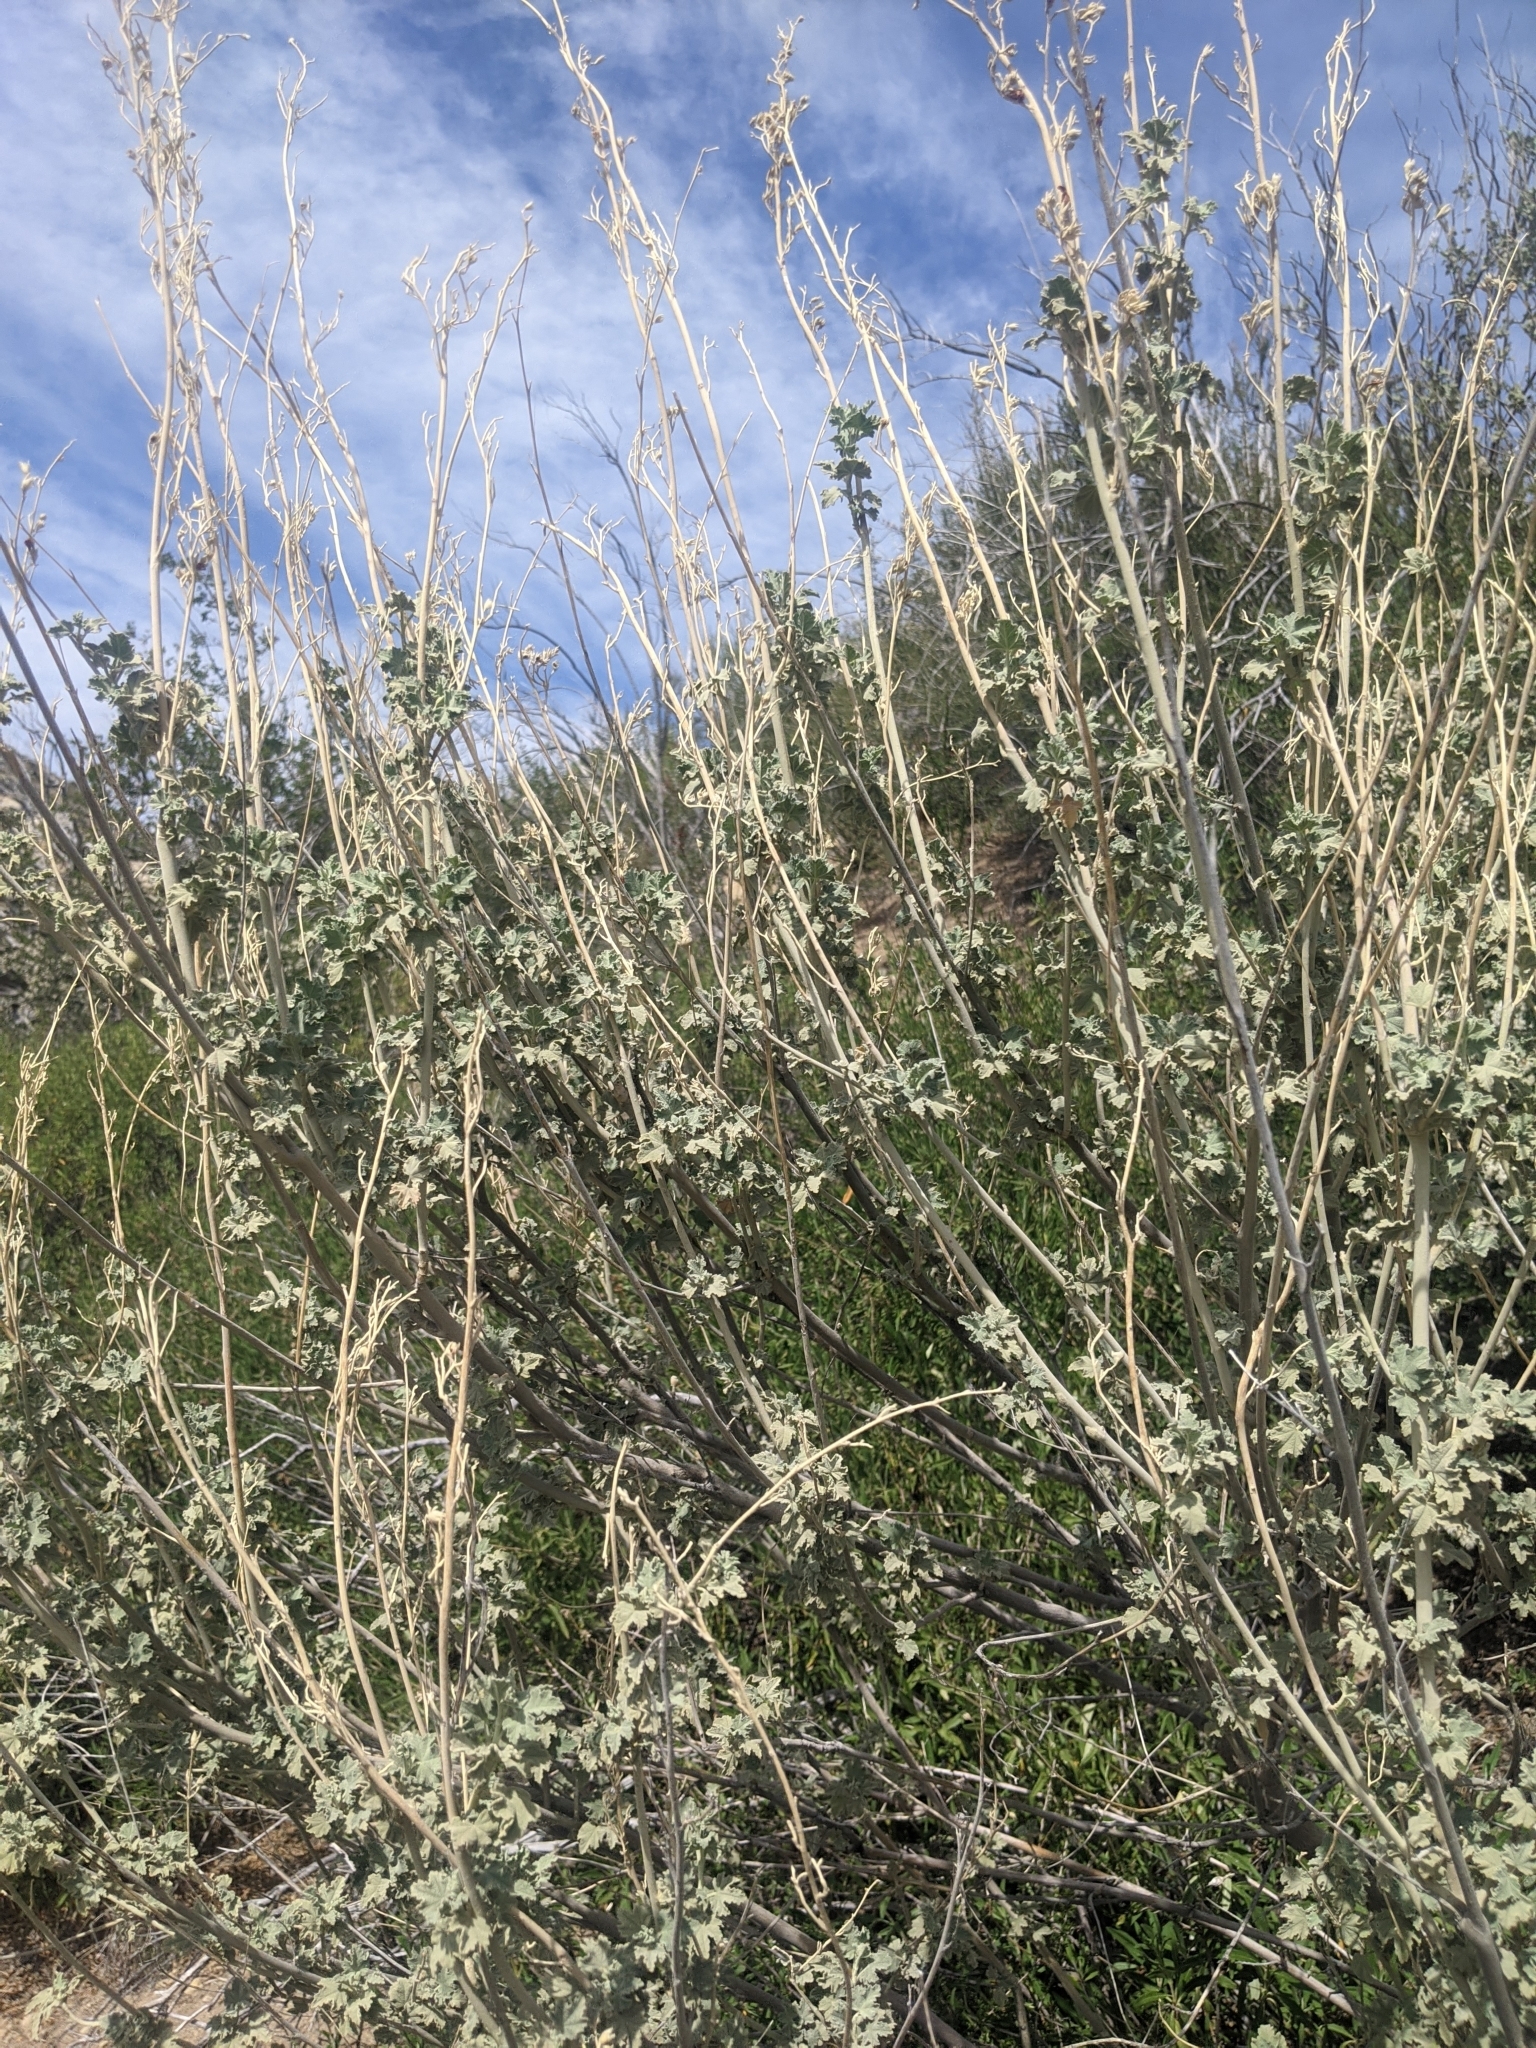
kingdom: Plantae
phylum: Tracheophyta
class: Magnoliopsida
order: Malvales
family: Malvaceae
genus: Malacothamnus
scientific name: Malacothamnus fasciculatus
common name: Sant cruz island bush-mallow
